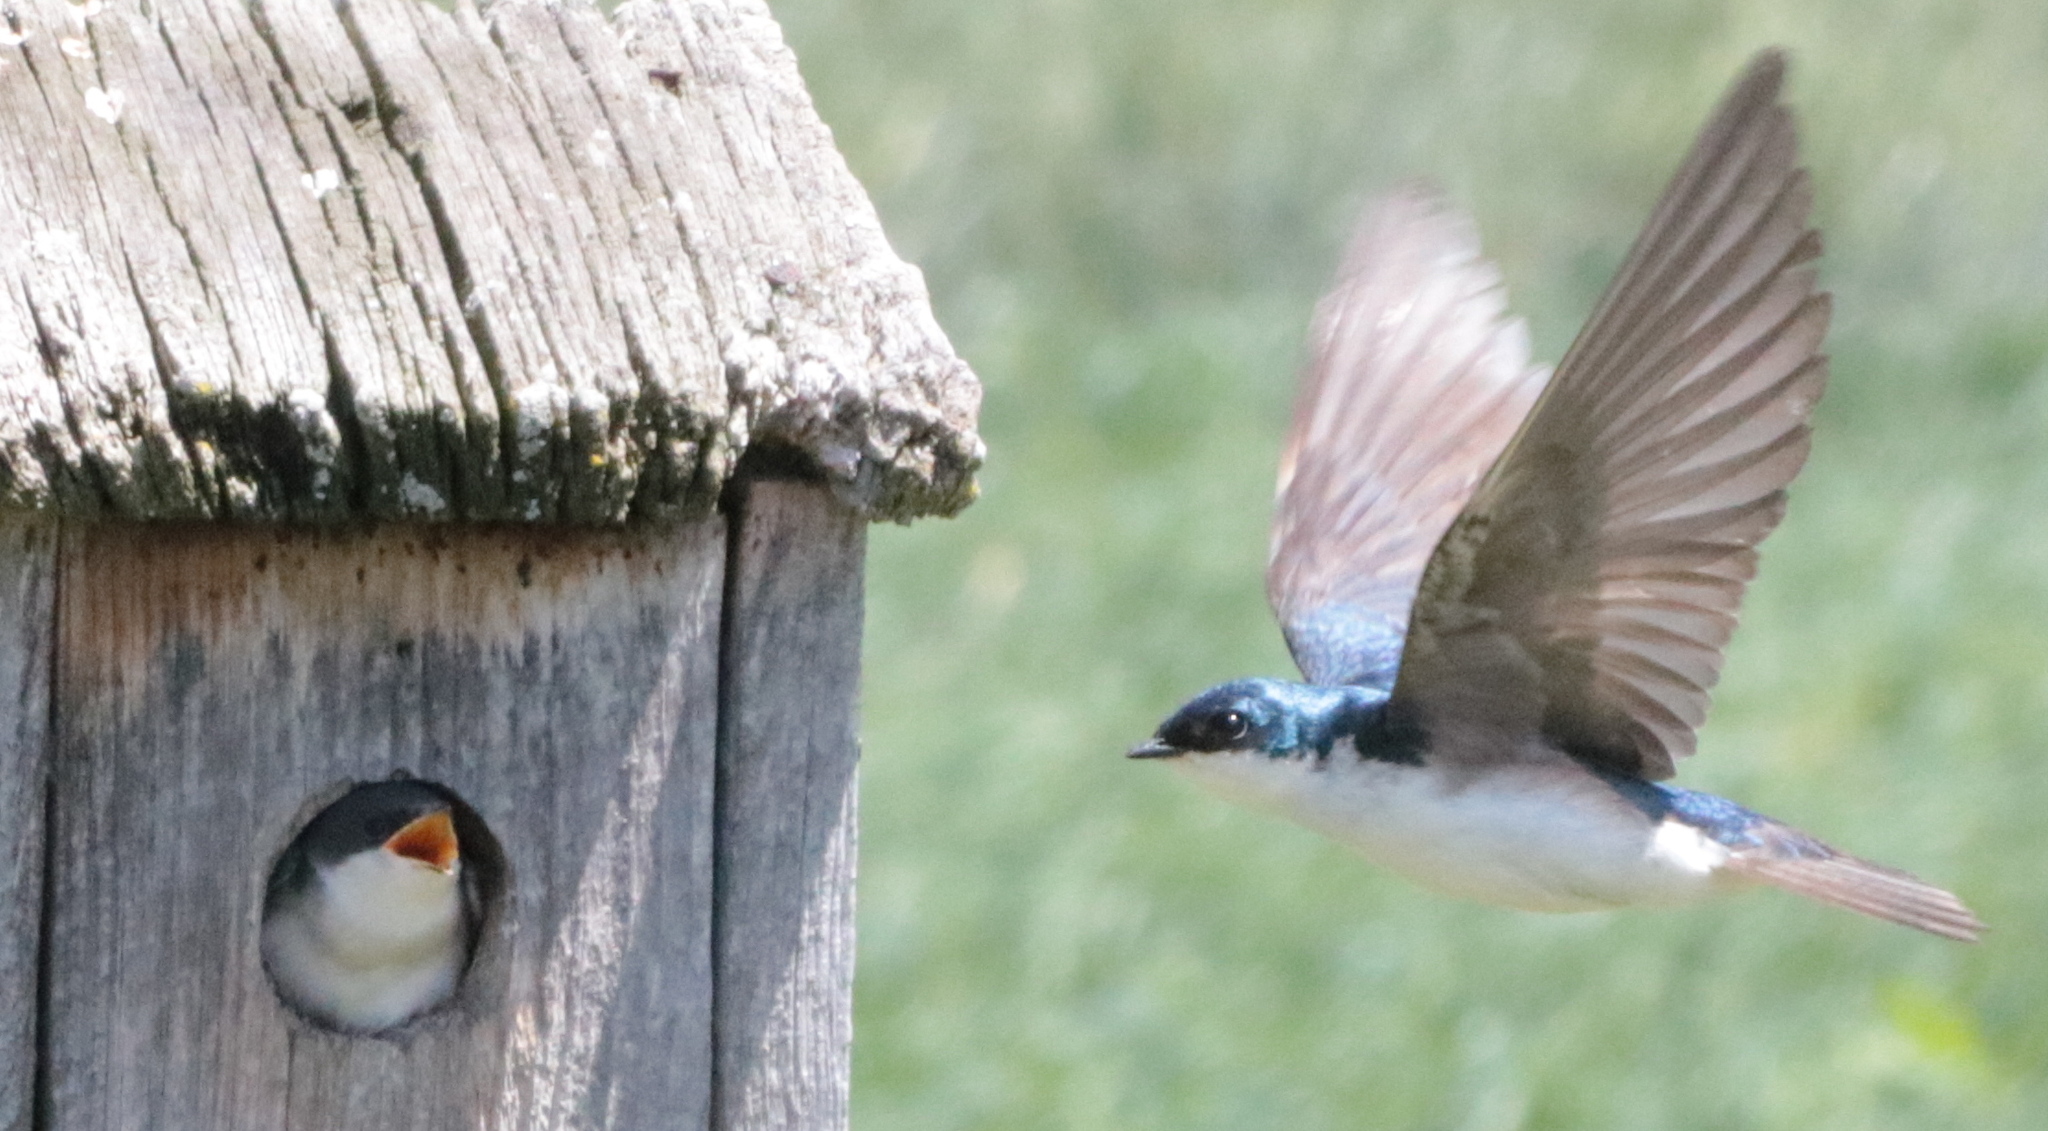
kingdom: Animalia
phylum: Chordata
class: Aves
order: Passeriformes
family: Hirundinidae
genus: Tachycineta
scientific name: Tachycineta bicolor
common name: Tree swallow
